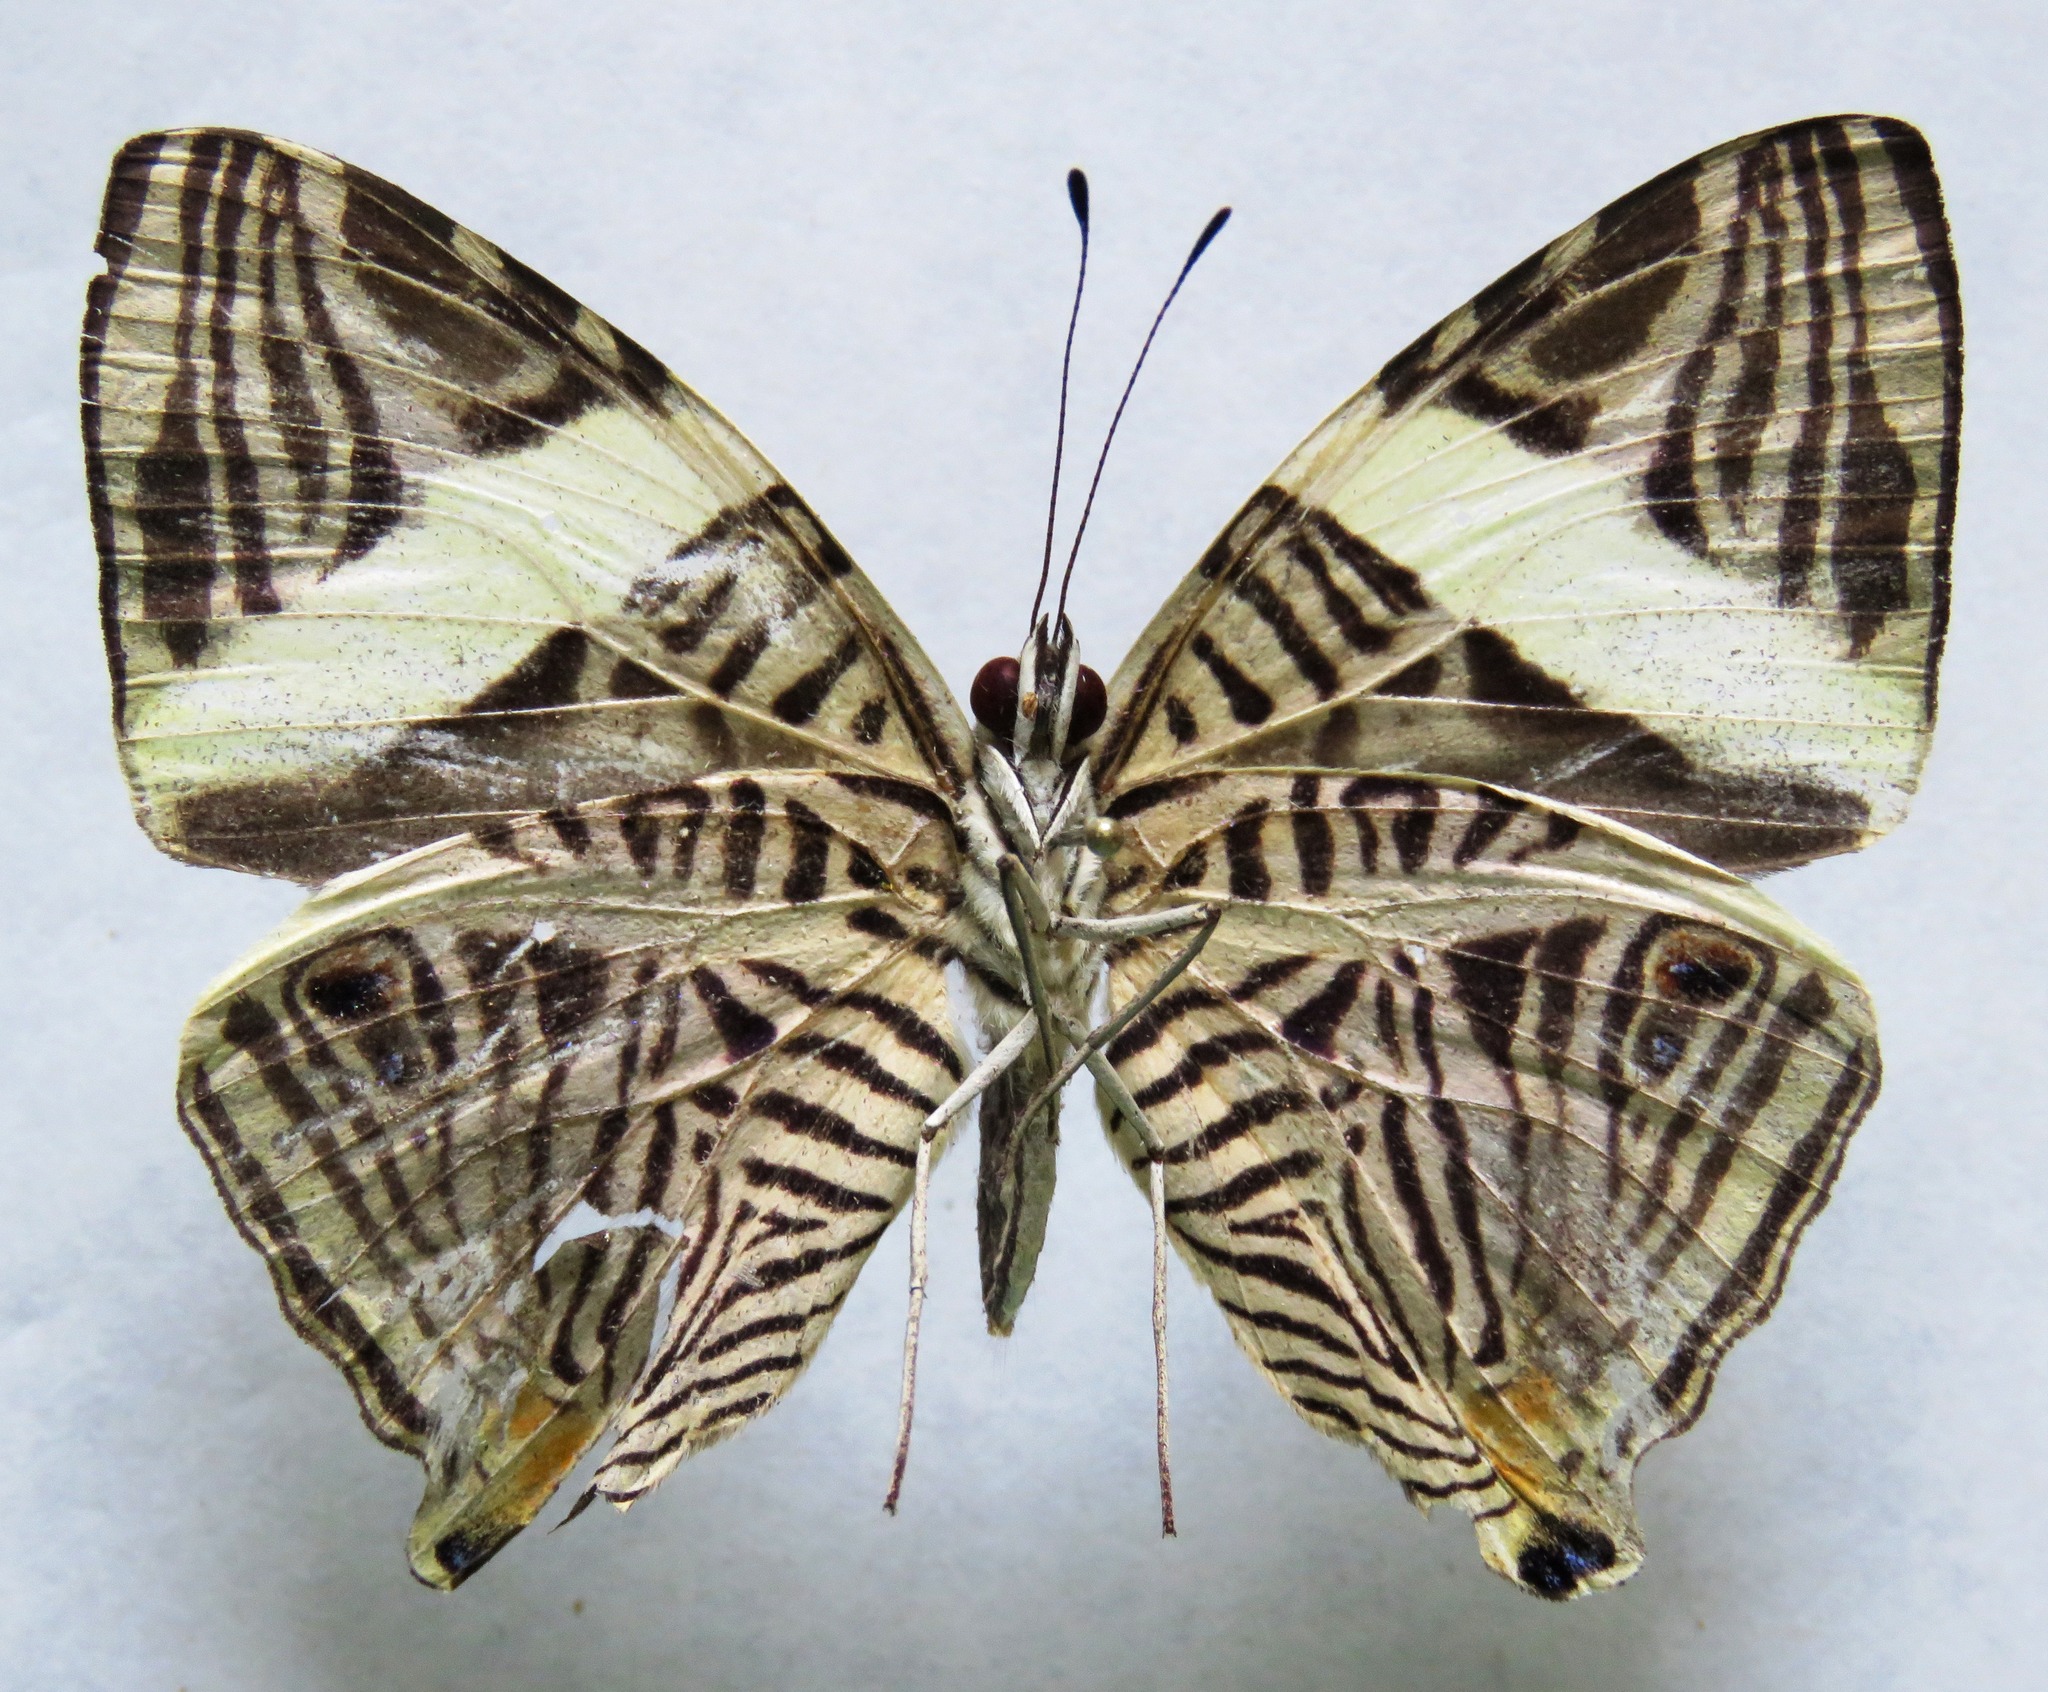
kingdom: Animalia
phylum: Arthropoda
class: Insecta
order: Lepidoptera
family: Nymphalidae
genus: Colobura
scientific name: Colobura dirce
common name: Dirce beauty
